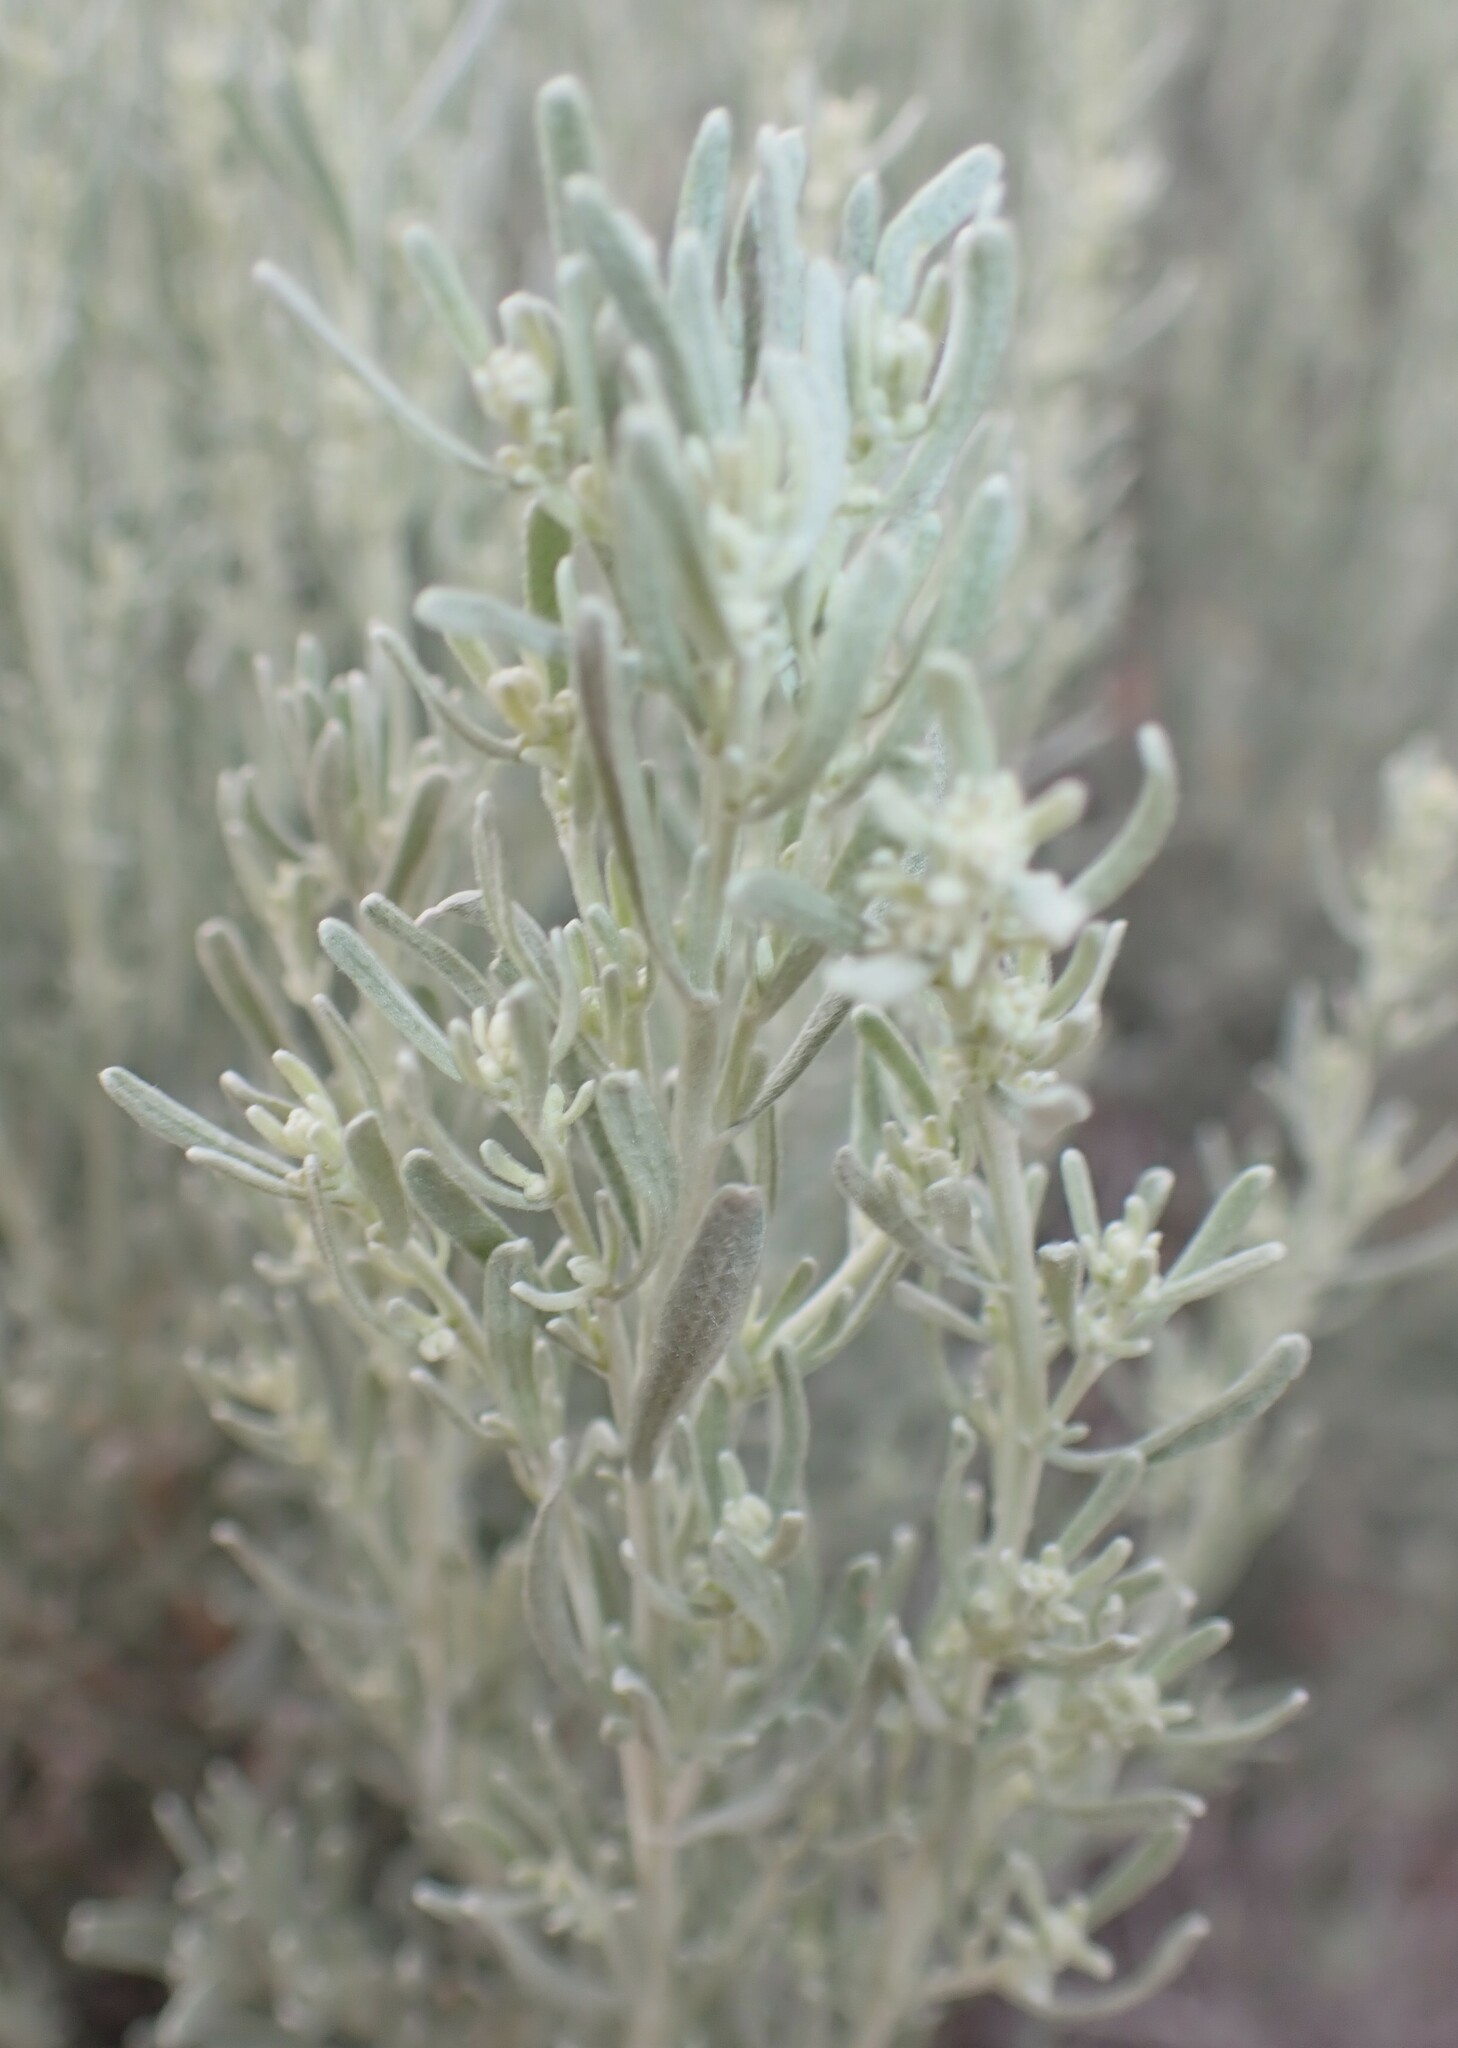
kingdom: Plantae
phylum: Tracheophyta
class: Magnoliopsida
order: Asterales
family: Asteraceae
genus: Artemisia
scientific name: Artemisia tridentata
